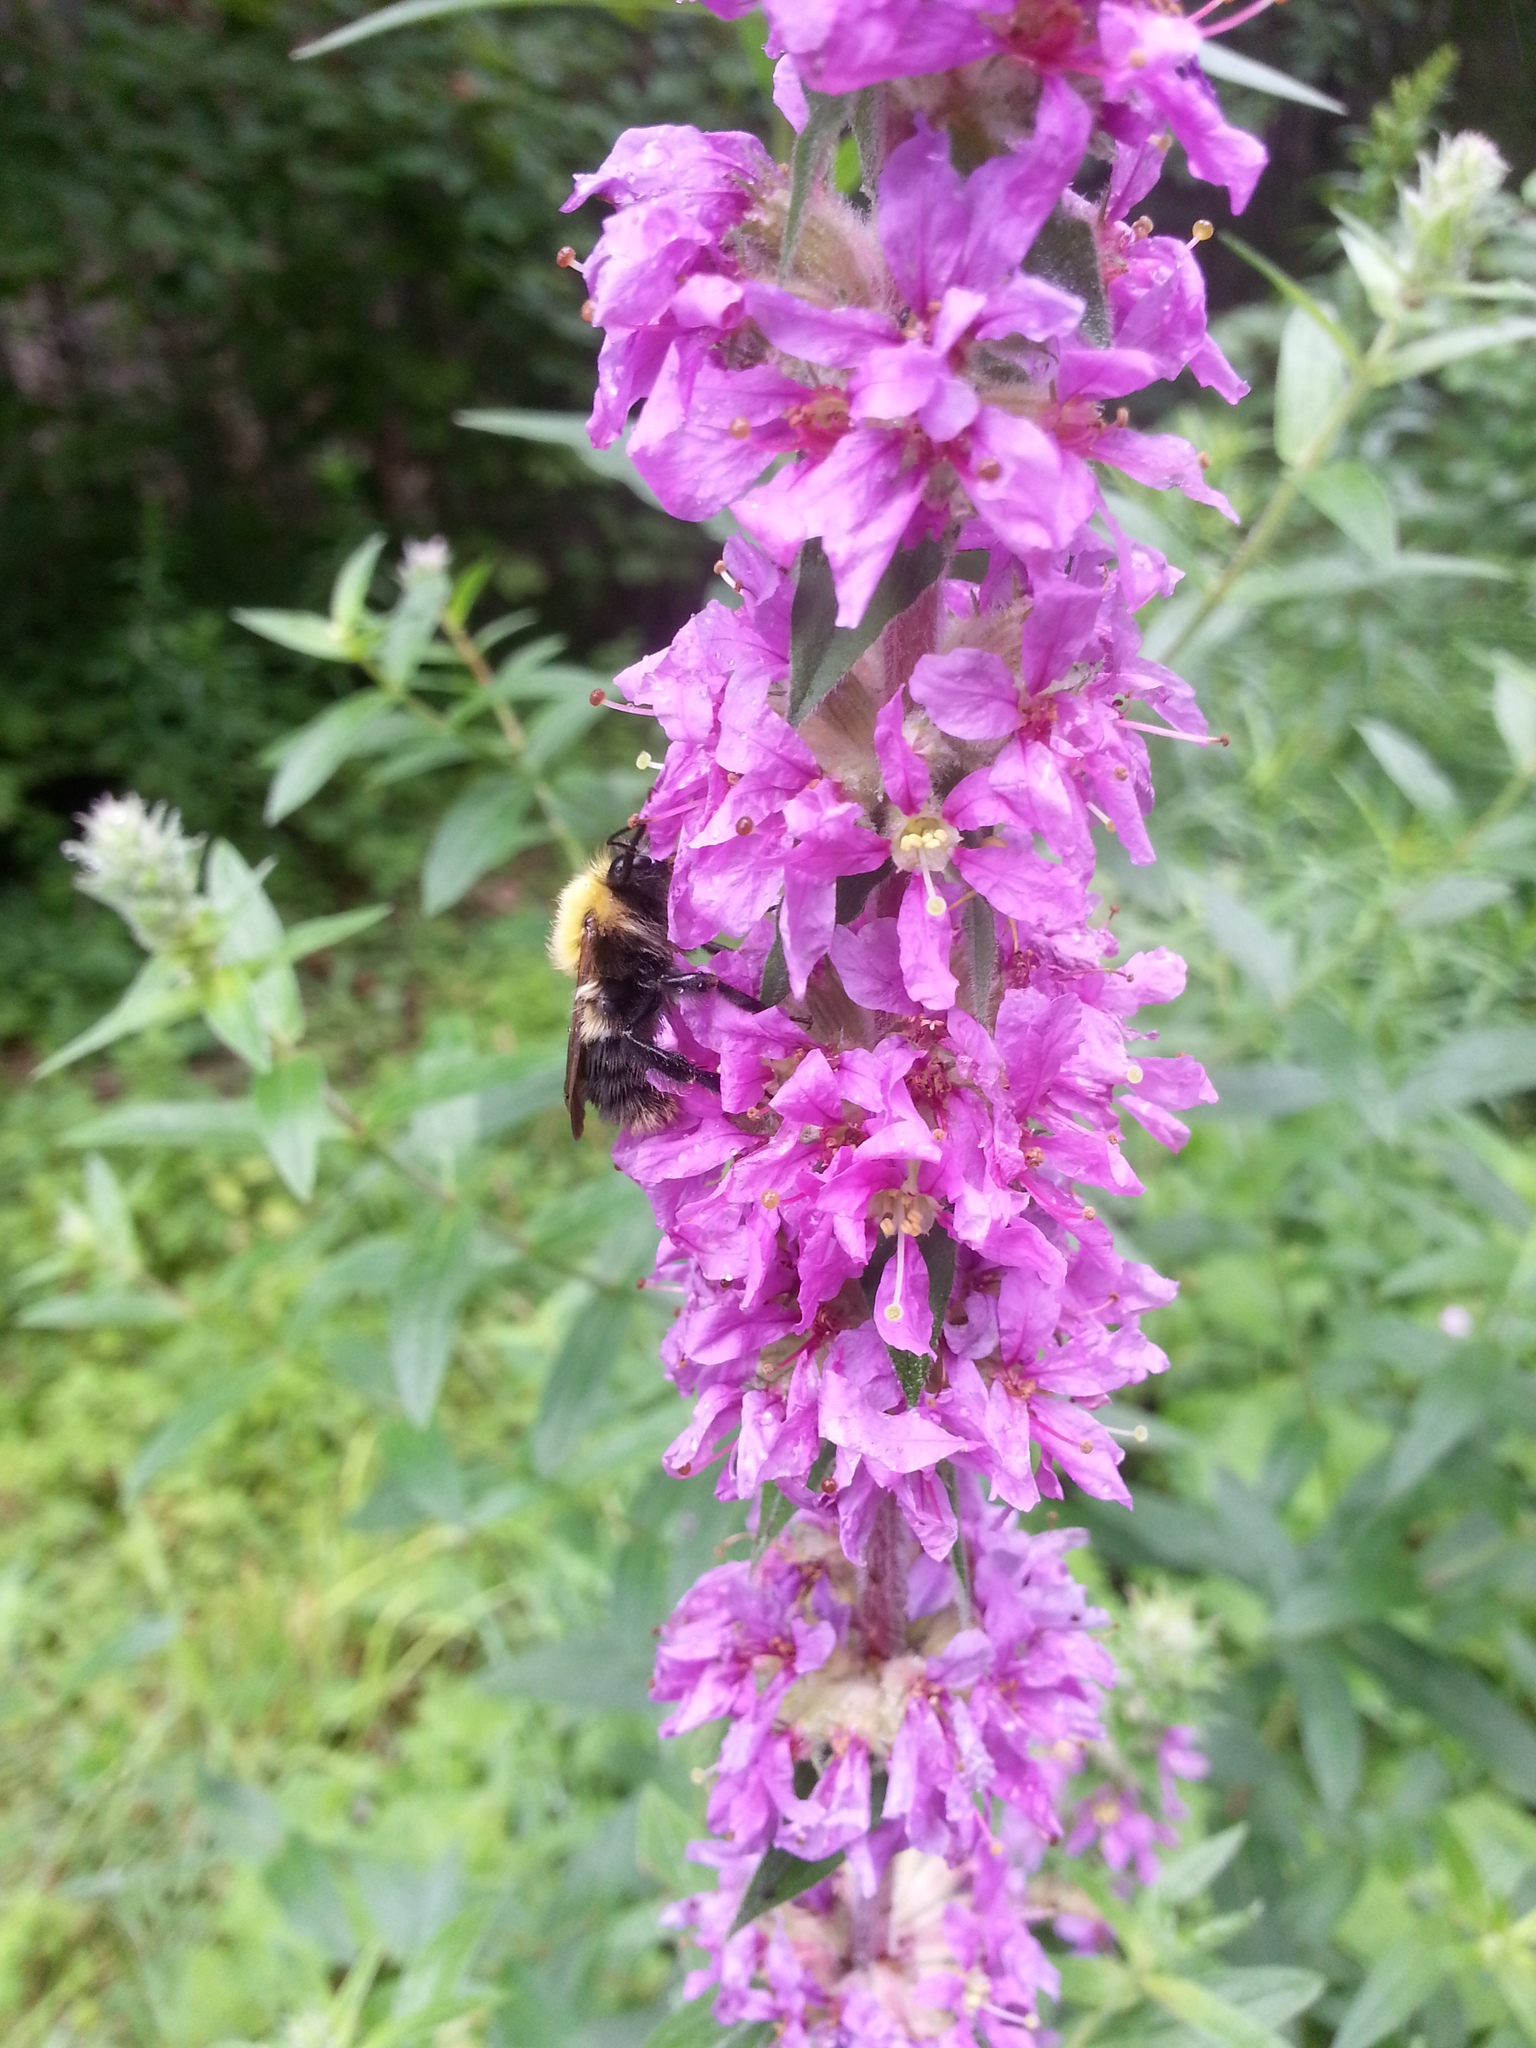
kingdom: Plantae
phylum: Tracheophyta
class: Magnoliopsida
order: Myrtales
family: Lythraceae
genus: Lythrum
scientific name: Lythrum salicaria
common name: Purple loosestrife
